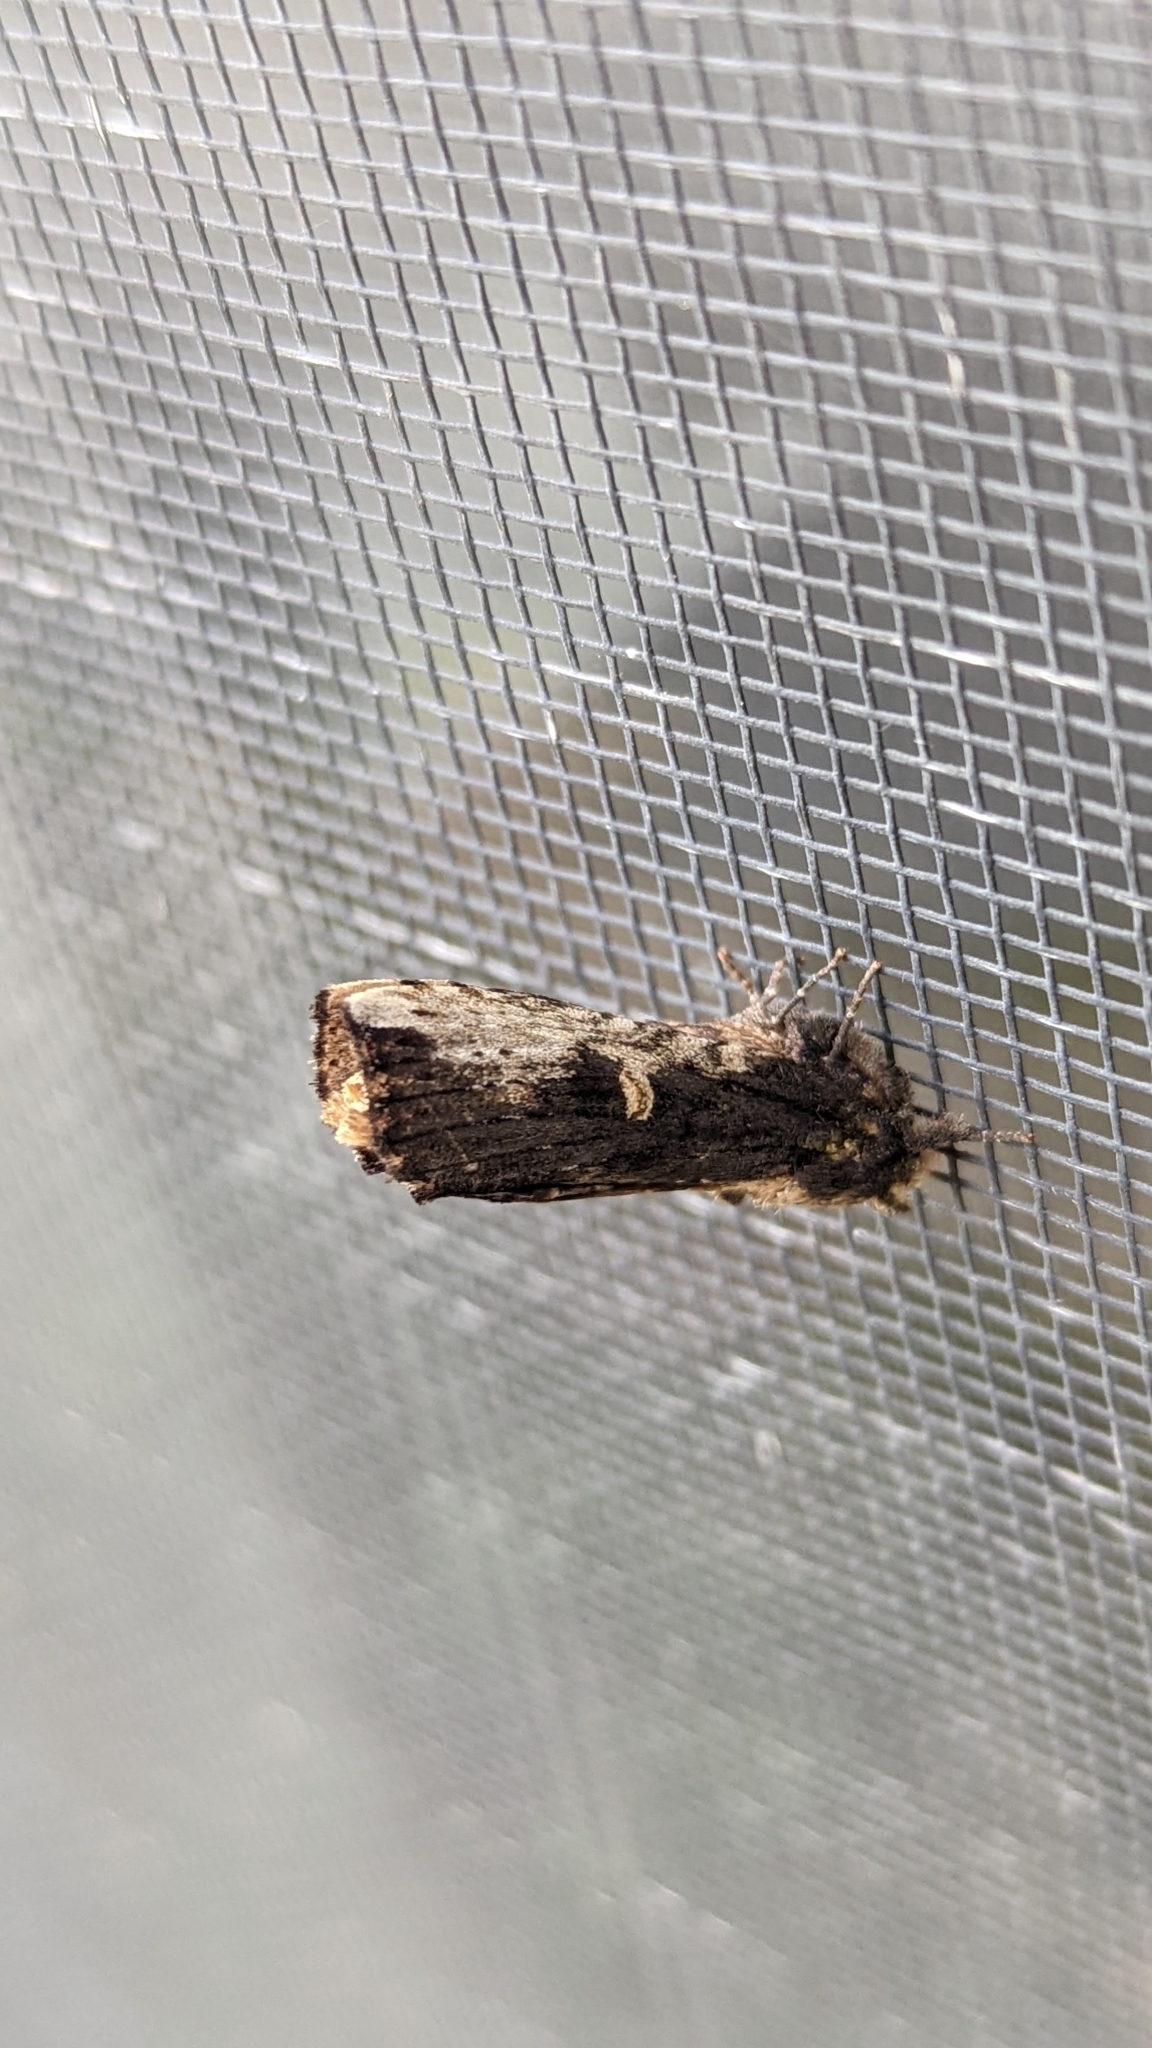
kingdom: Animalia
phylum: Arthropoda
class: Insecta
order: Lepidoptera
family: Notodontidae
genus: Schizura
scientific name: Schizura ipomaeae
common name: Morning-glory prominent
